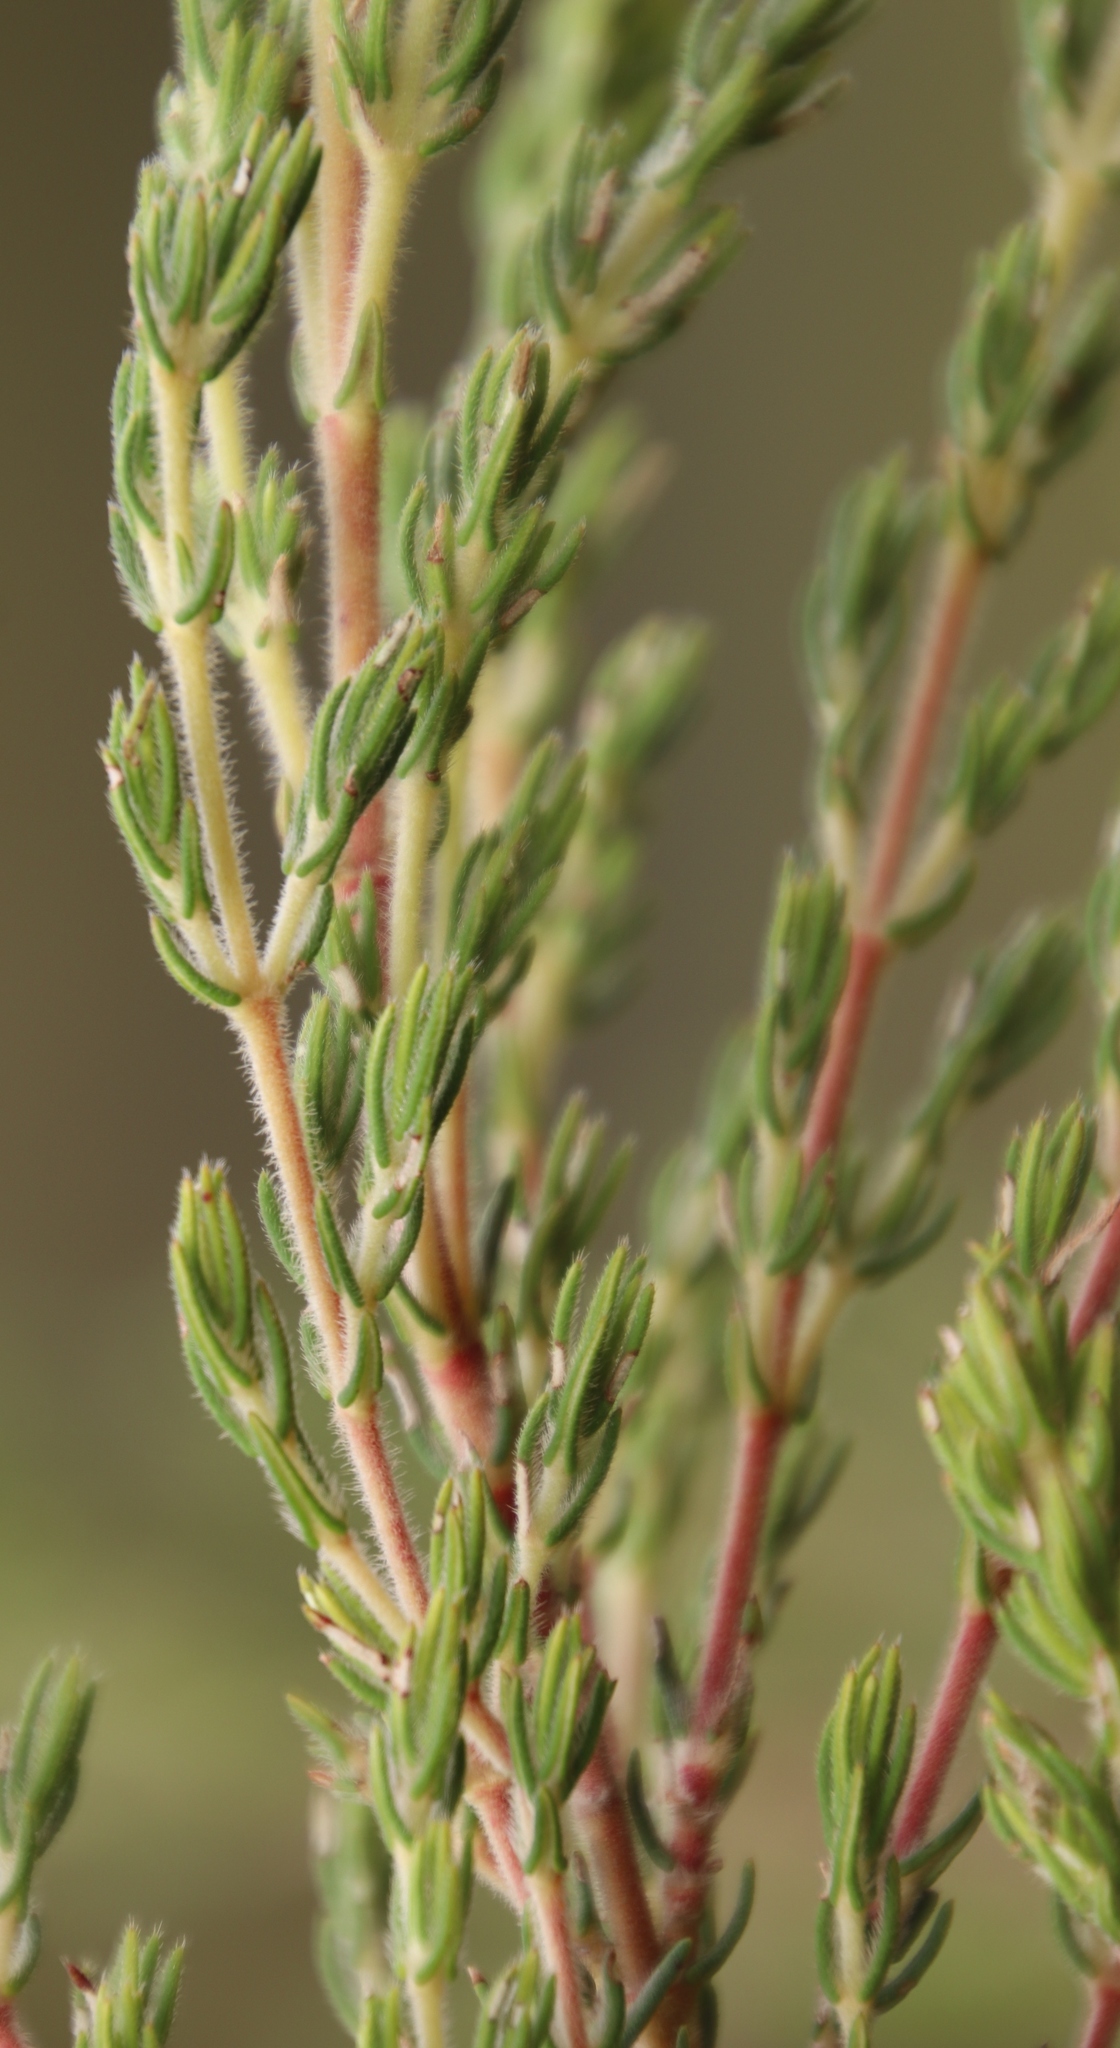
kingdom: Plantae
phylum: Tracheophyta
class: Magnoliopsida
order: Cornales
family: Grubbiaceae
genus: Grubbia
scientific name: Grubbia rosmarinifolia
